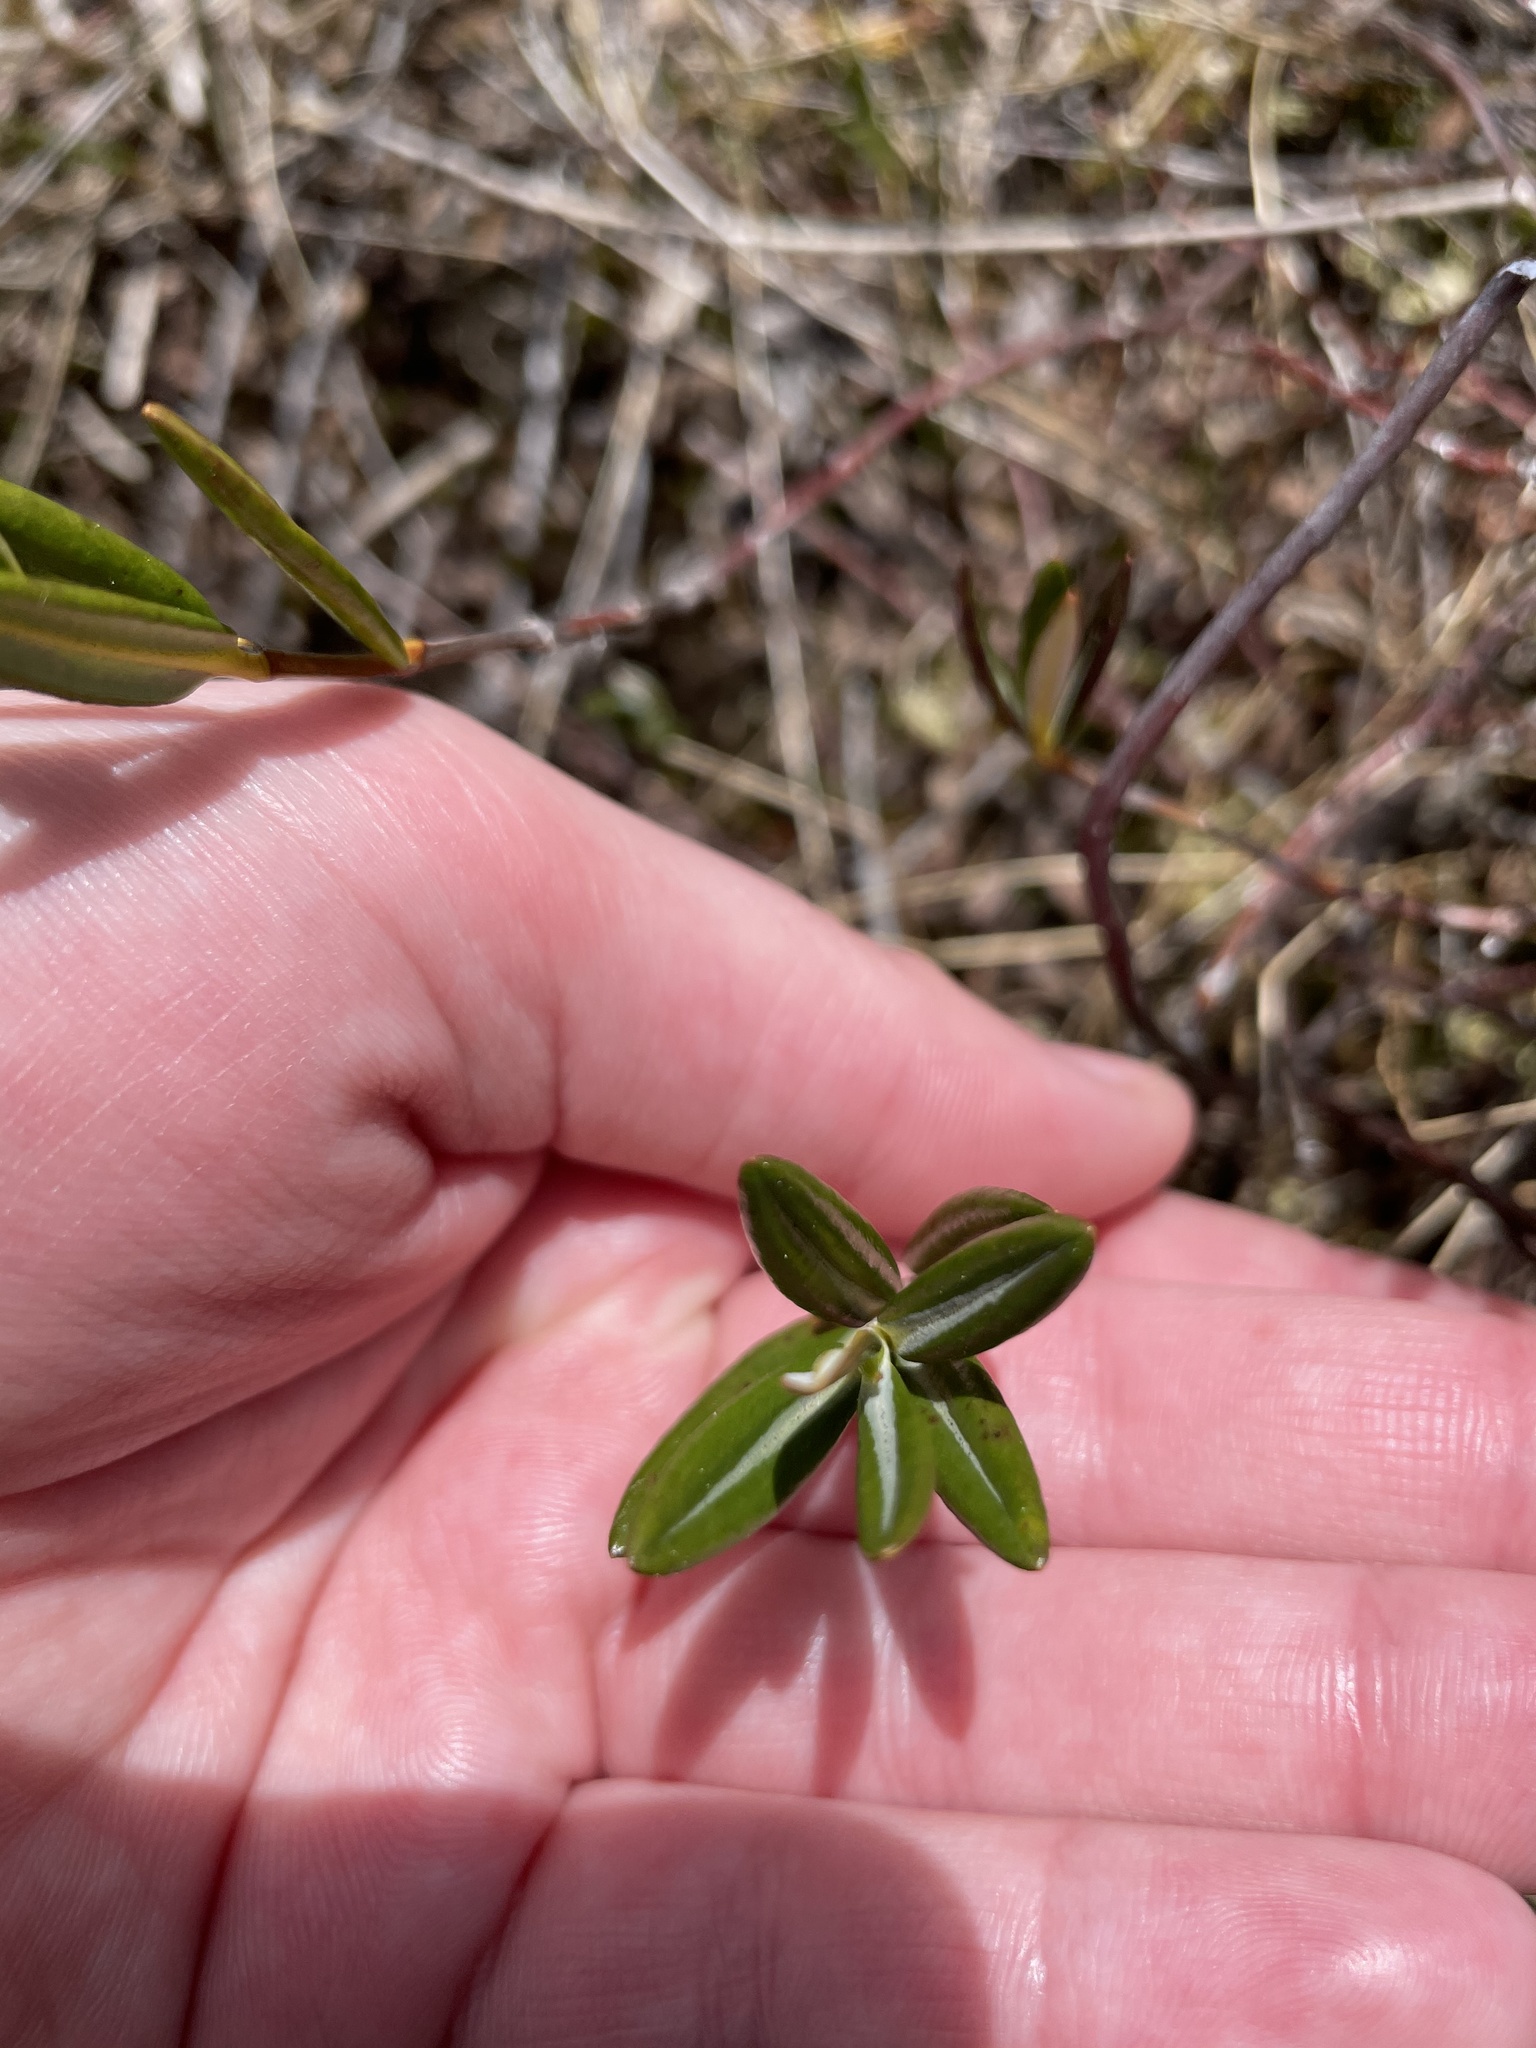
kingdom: Plantae
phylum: Tracheophyta
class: Magnoliopsida
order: Ericales
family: Ericaceae
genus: Kalmia
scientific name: Kalmia polifolia
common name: Bog-laurel
